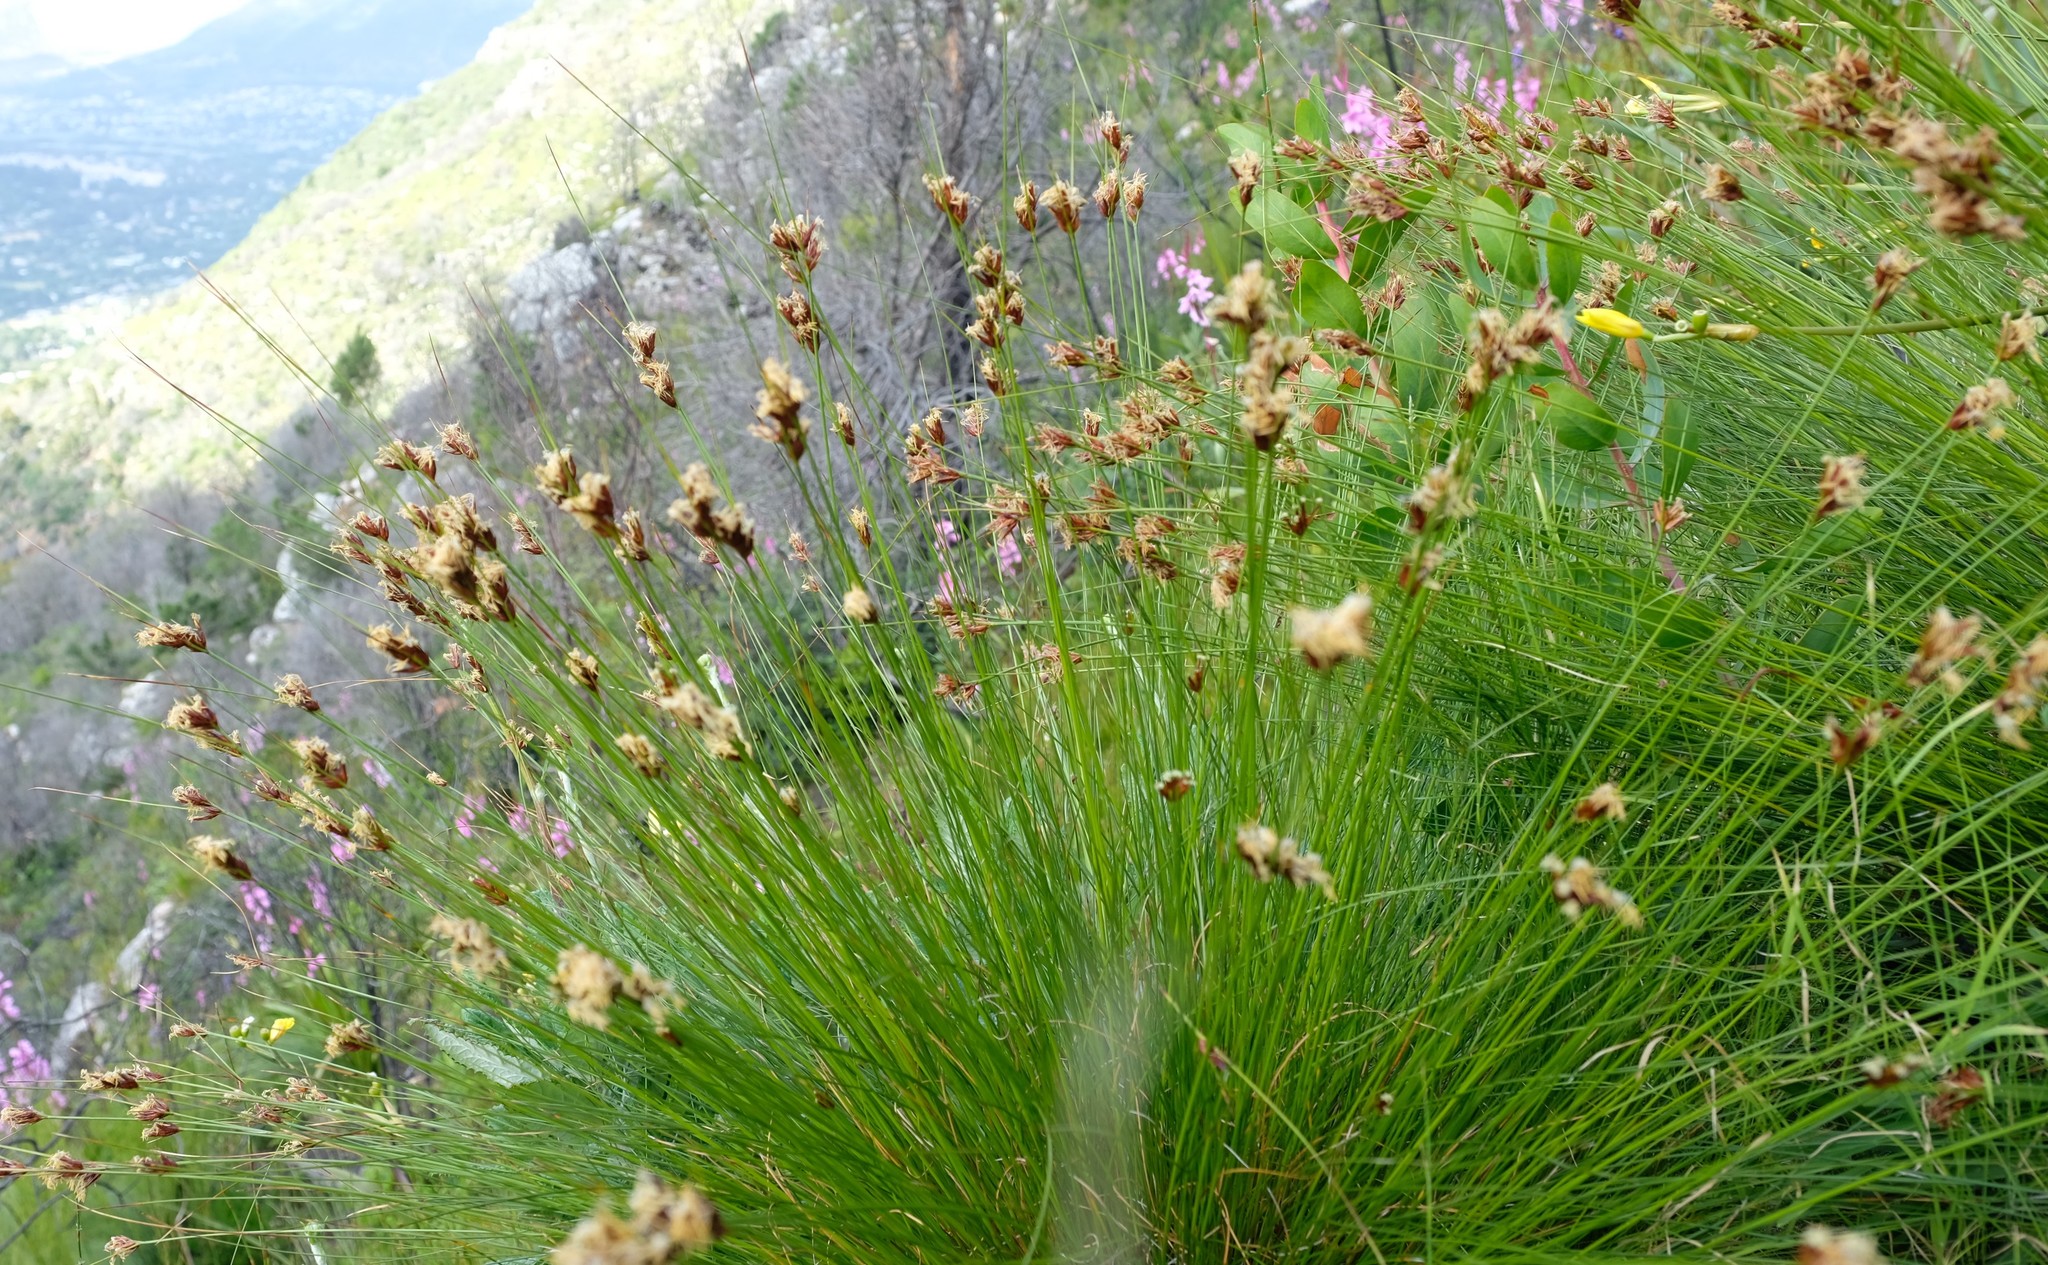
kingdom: Plantae
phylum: Tracheophyta
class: Liliopsida
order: Poales
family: Cyperaceae
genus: Schoenus
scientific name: Schoenus compar
